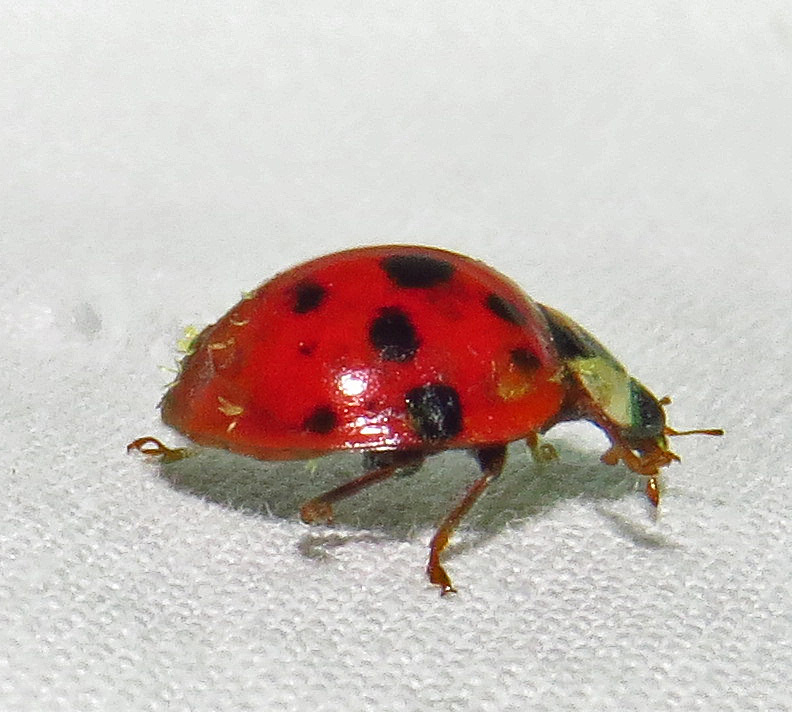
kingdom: Animalia
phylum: Arthropoda
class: Insecta
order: Coleoptera
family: Coccinellidae
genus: Harmonia
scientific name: Harmonia axyridis
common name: Harlequin ladybird
